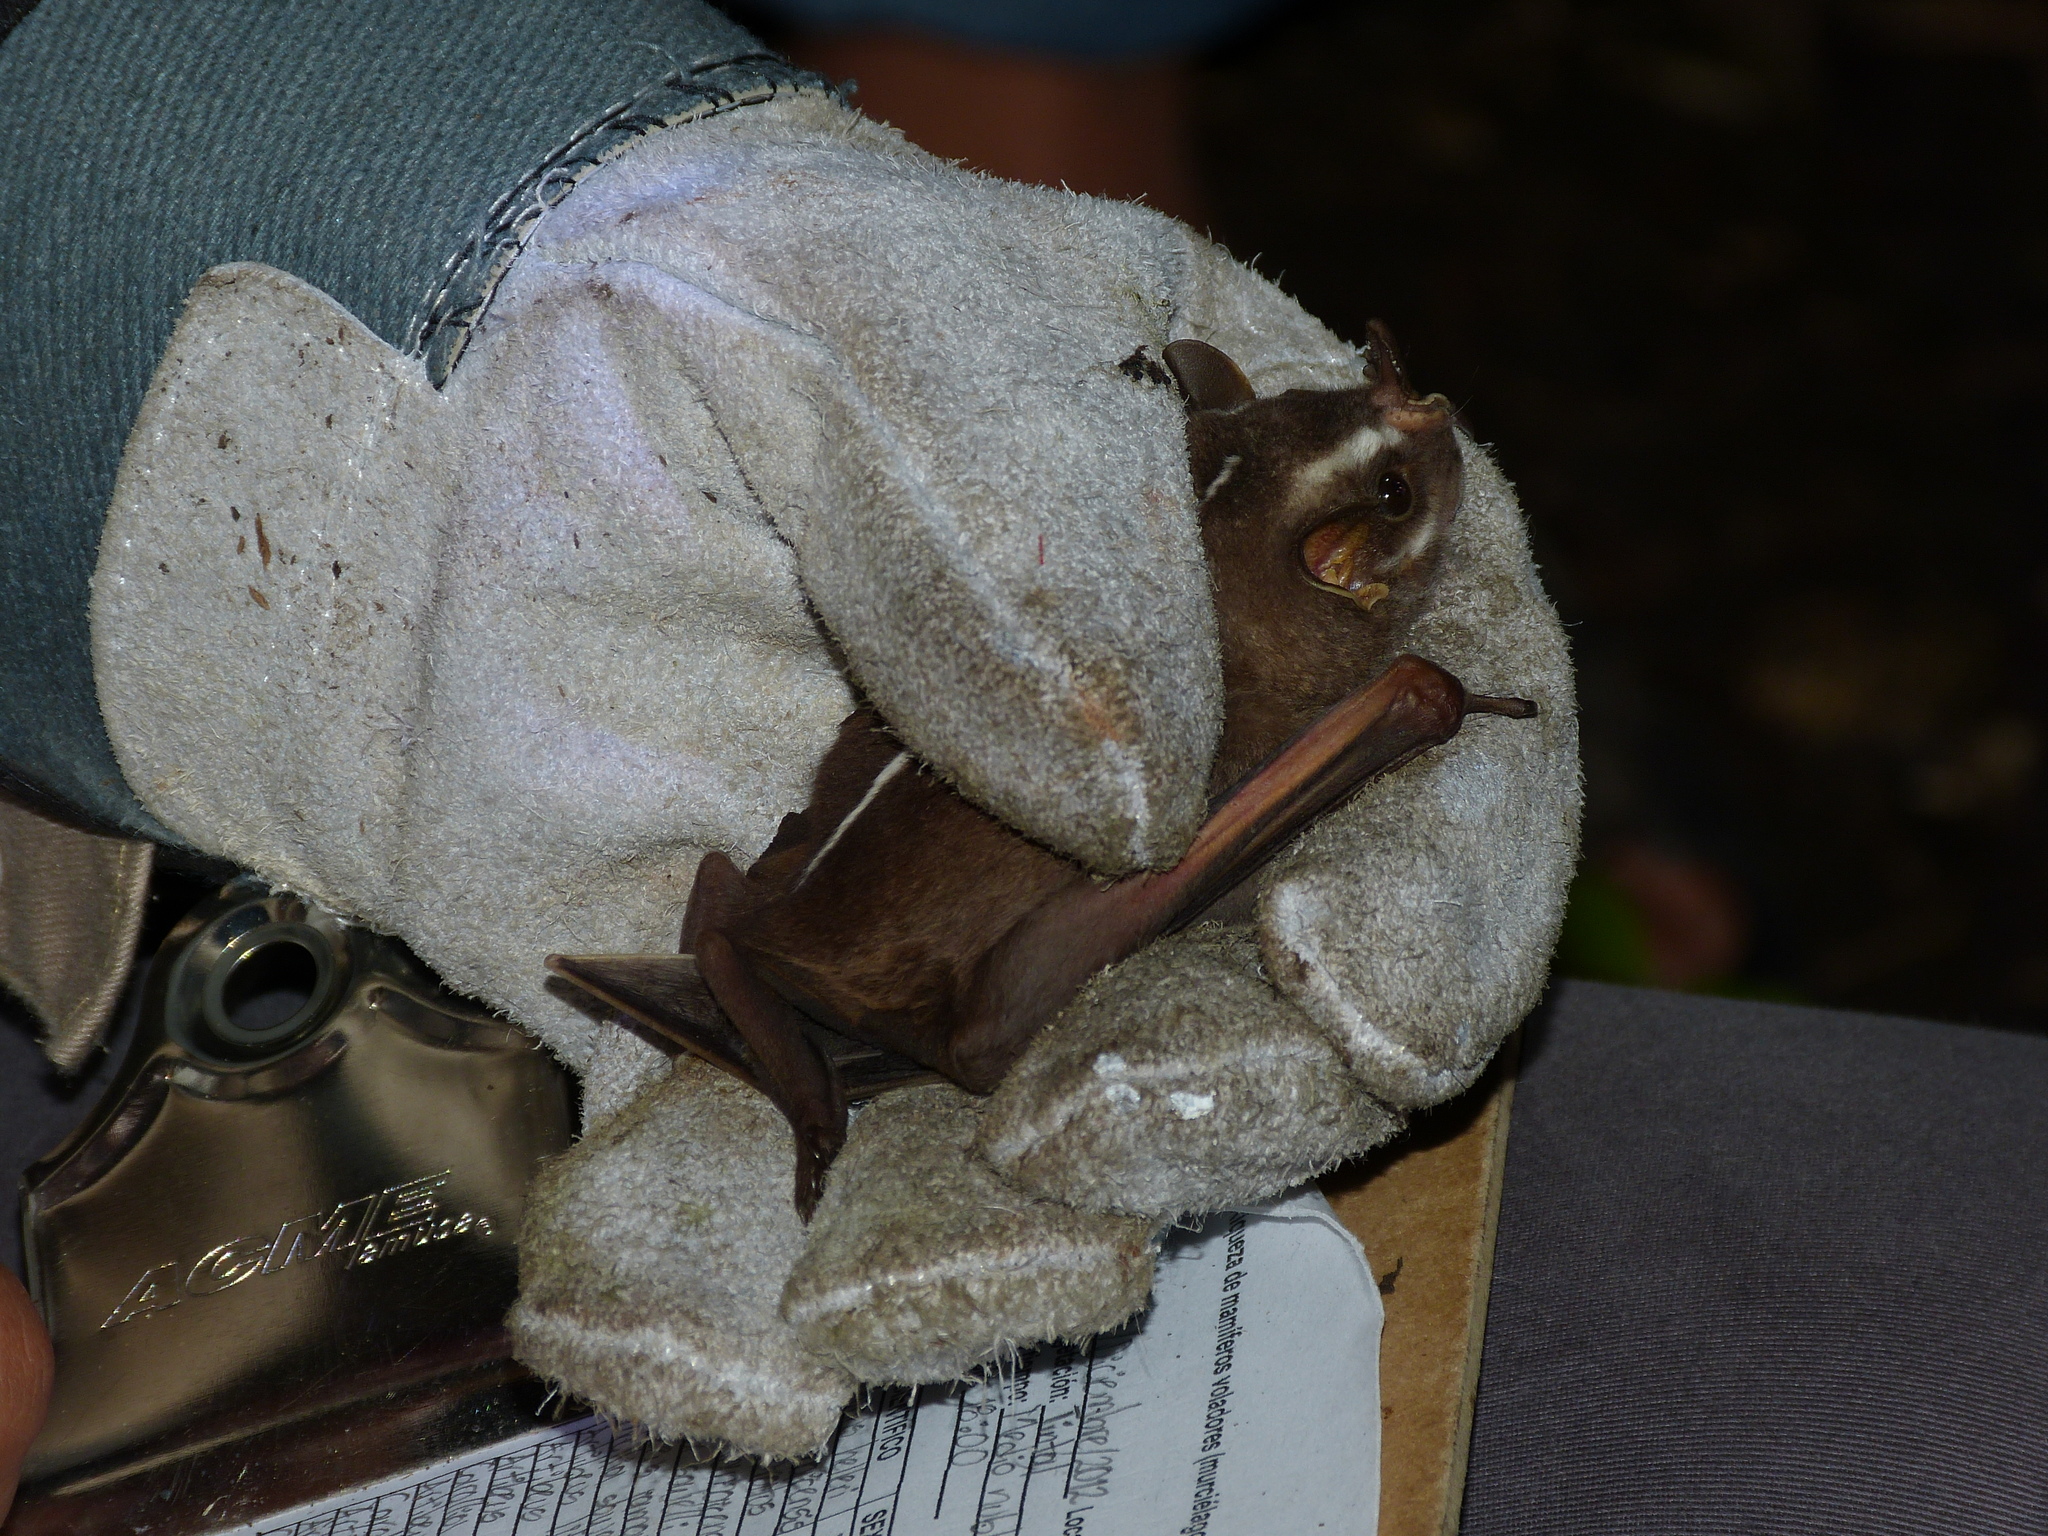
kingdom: Animalia
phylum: Chordata
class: Mammalia
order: Chiroptera
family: Phyllostomidae
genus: Platyrrhinus
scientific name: Platyrrhinus helleri
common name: Heller's broad-nosed bat
